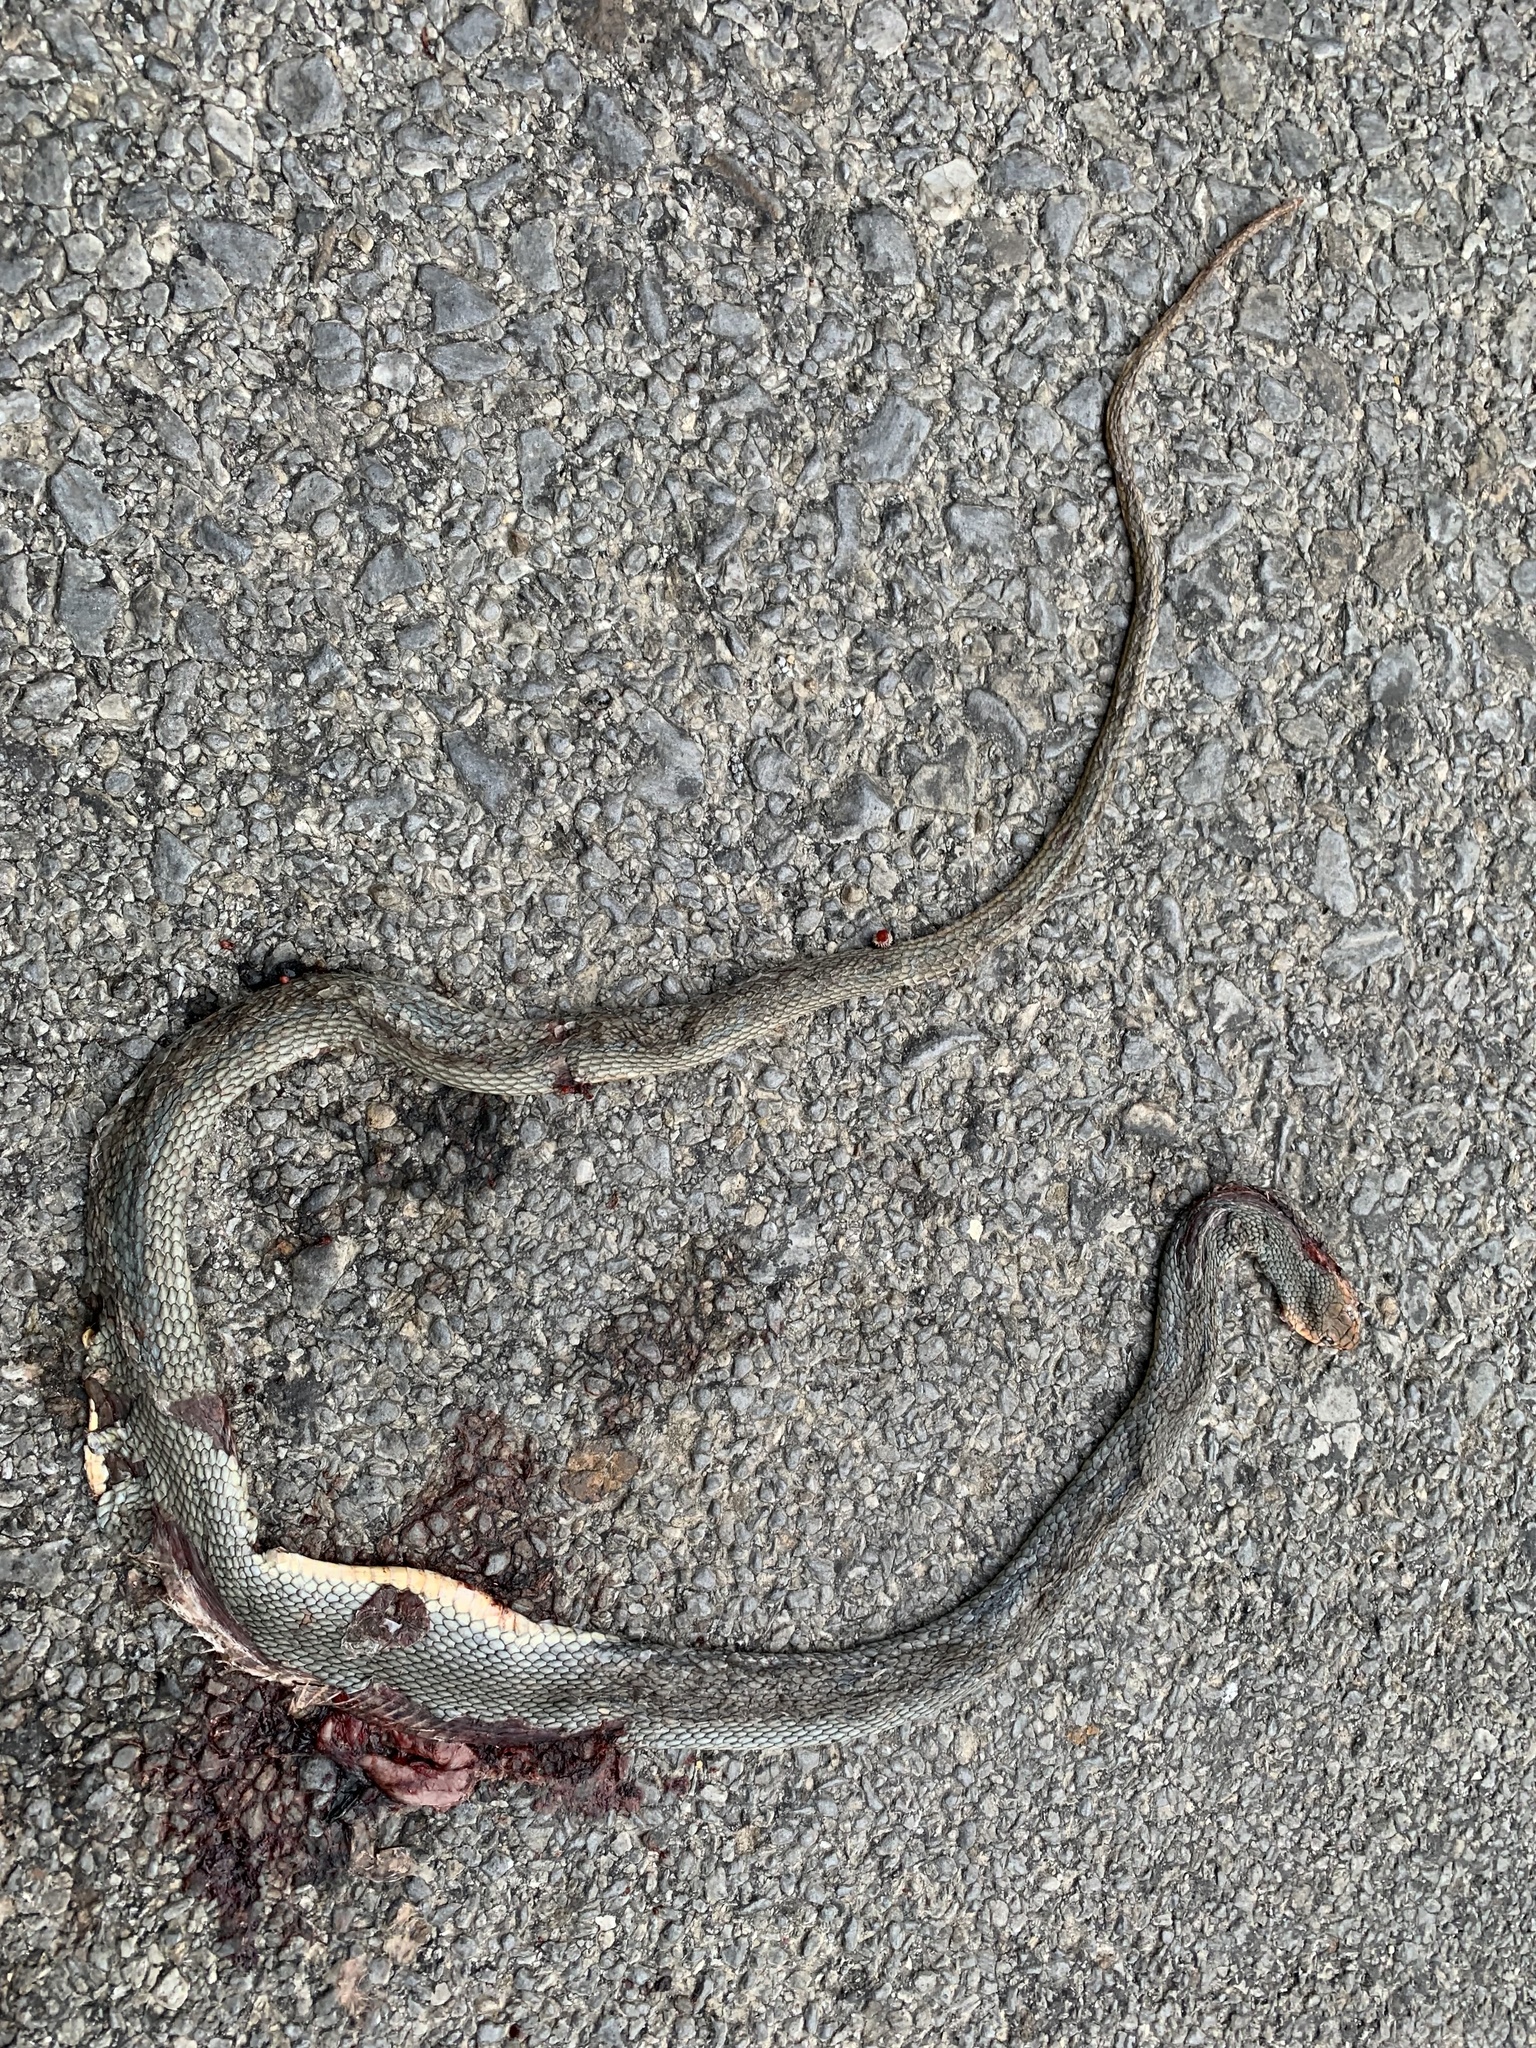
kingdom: Animalia
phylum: Chordata
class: Squamata
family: Colubridae
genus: Dolichophis
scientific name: Dolichophis caspius
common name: Large whip snake
